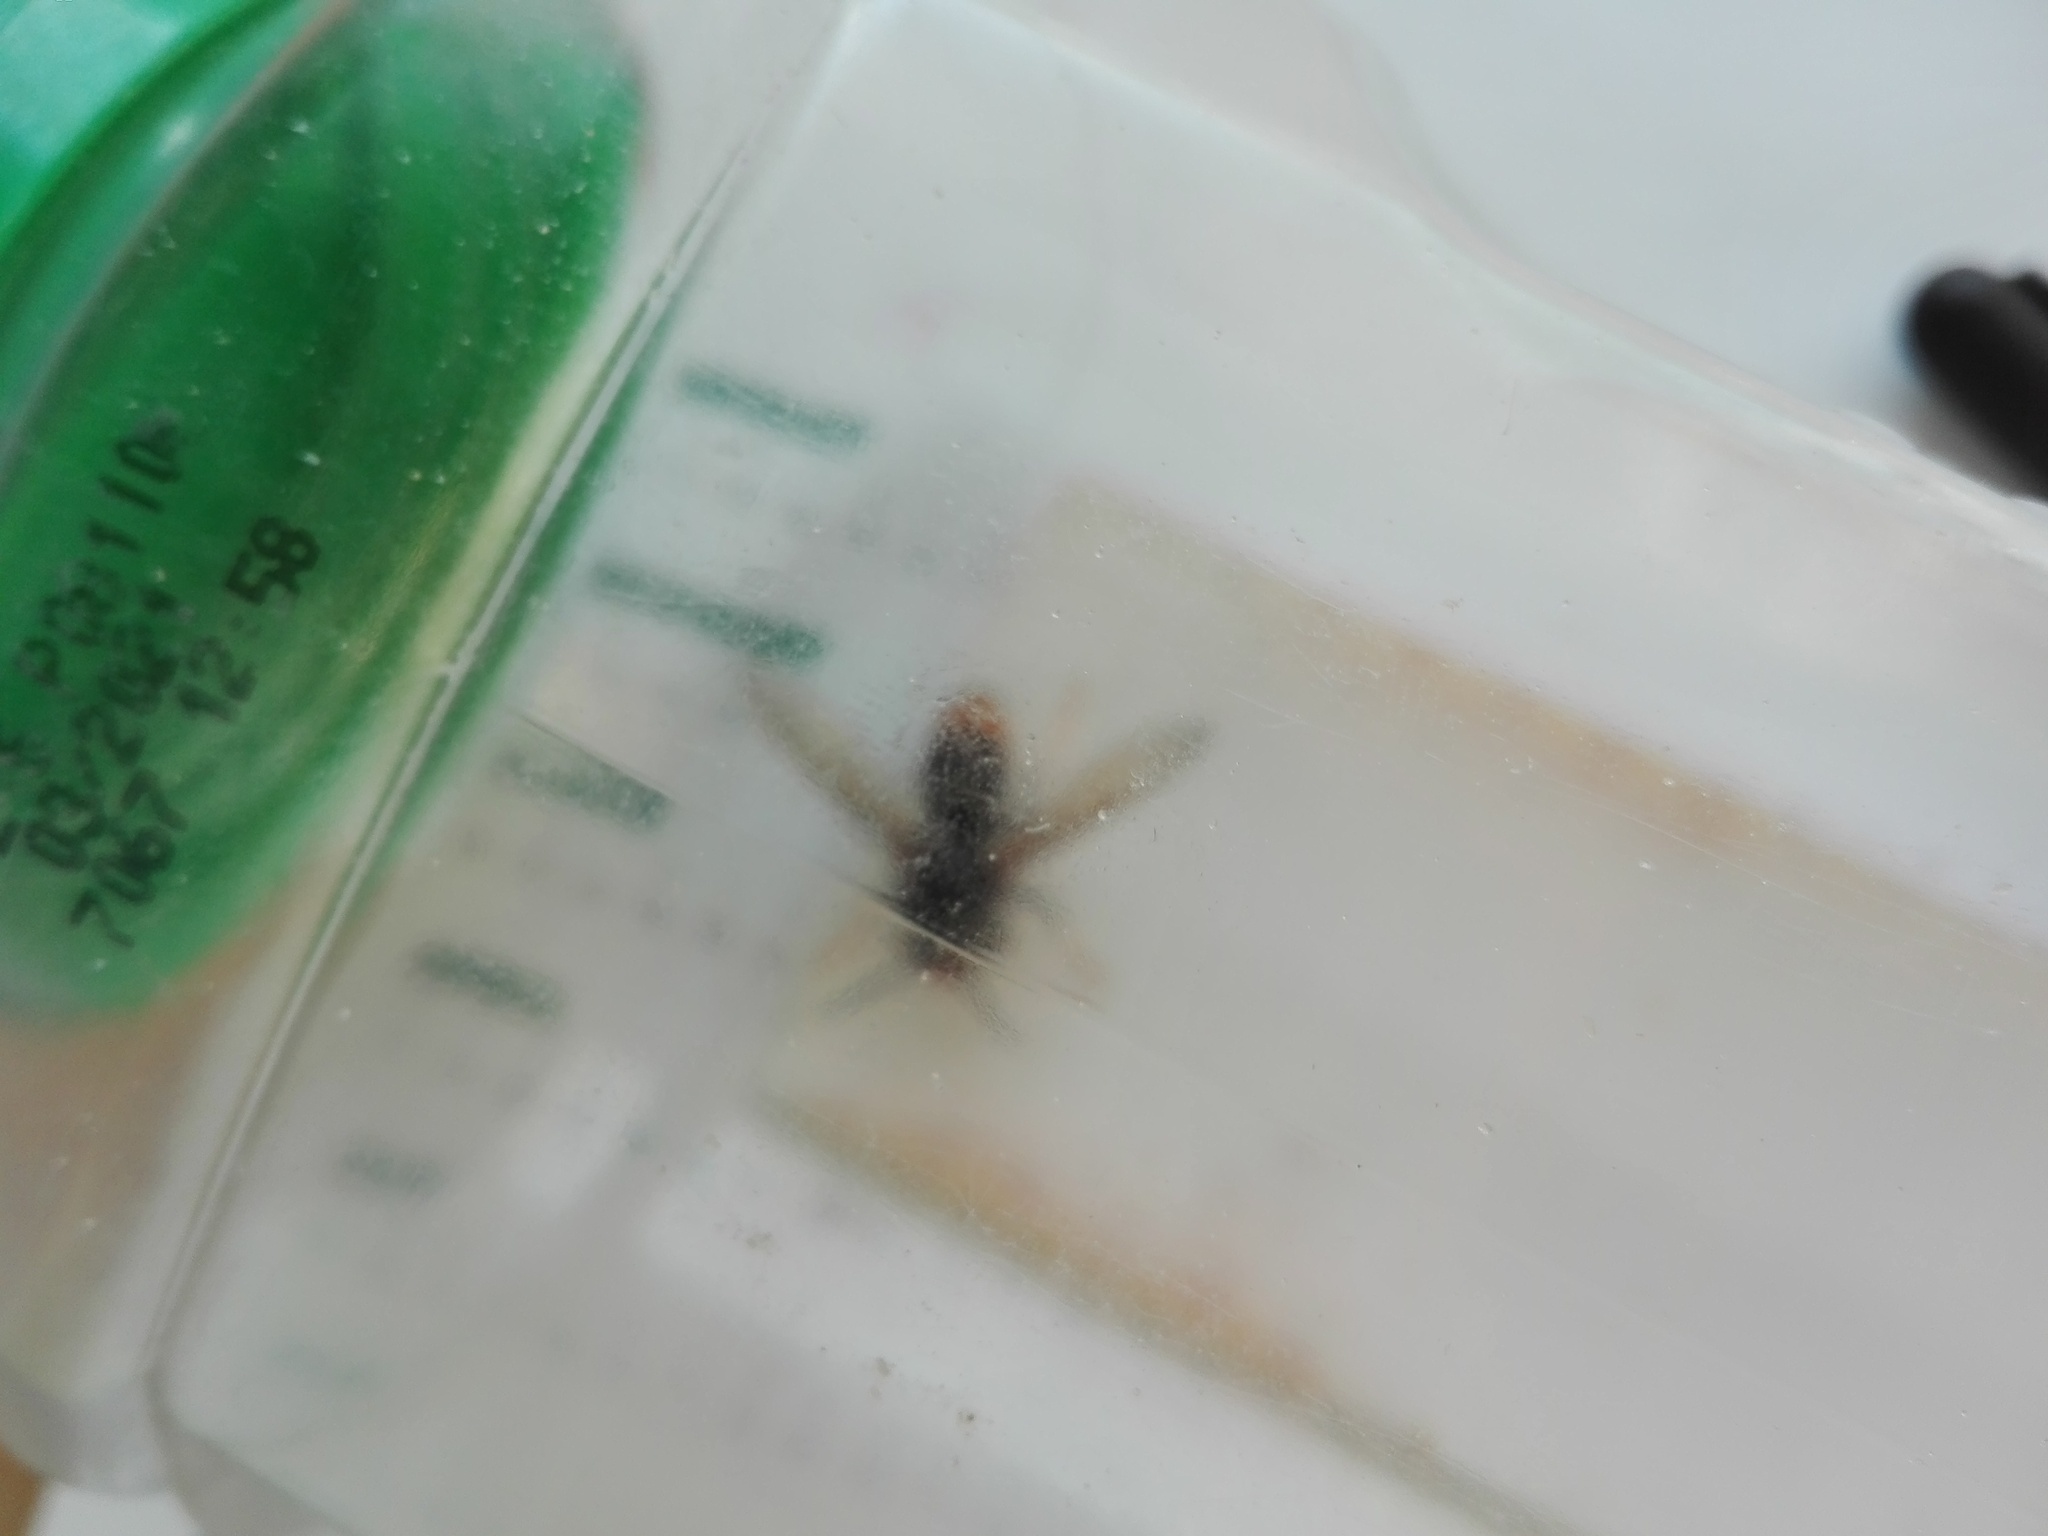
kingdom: Animalia
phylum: Arthropoda
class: Insecta
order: Hymenoptera
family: Vespidae
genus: Vespa
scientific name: Vespa velutina
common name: Asian hornet
